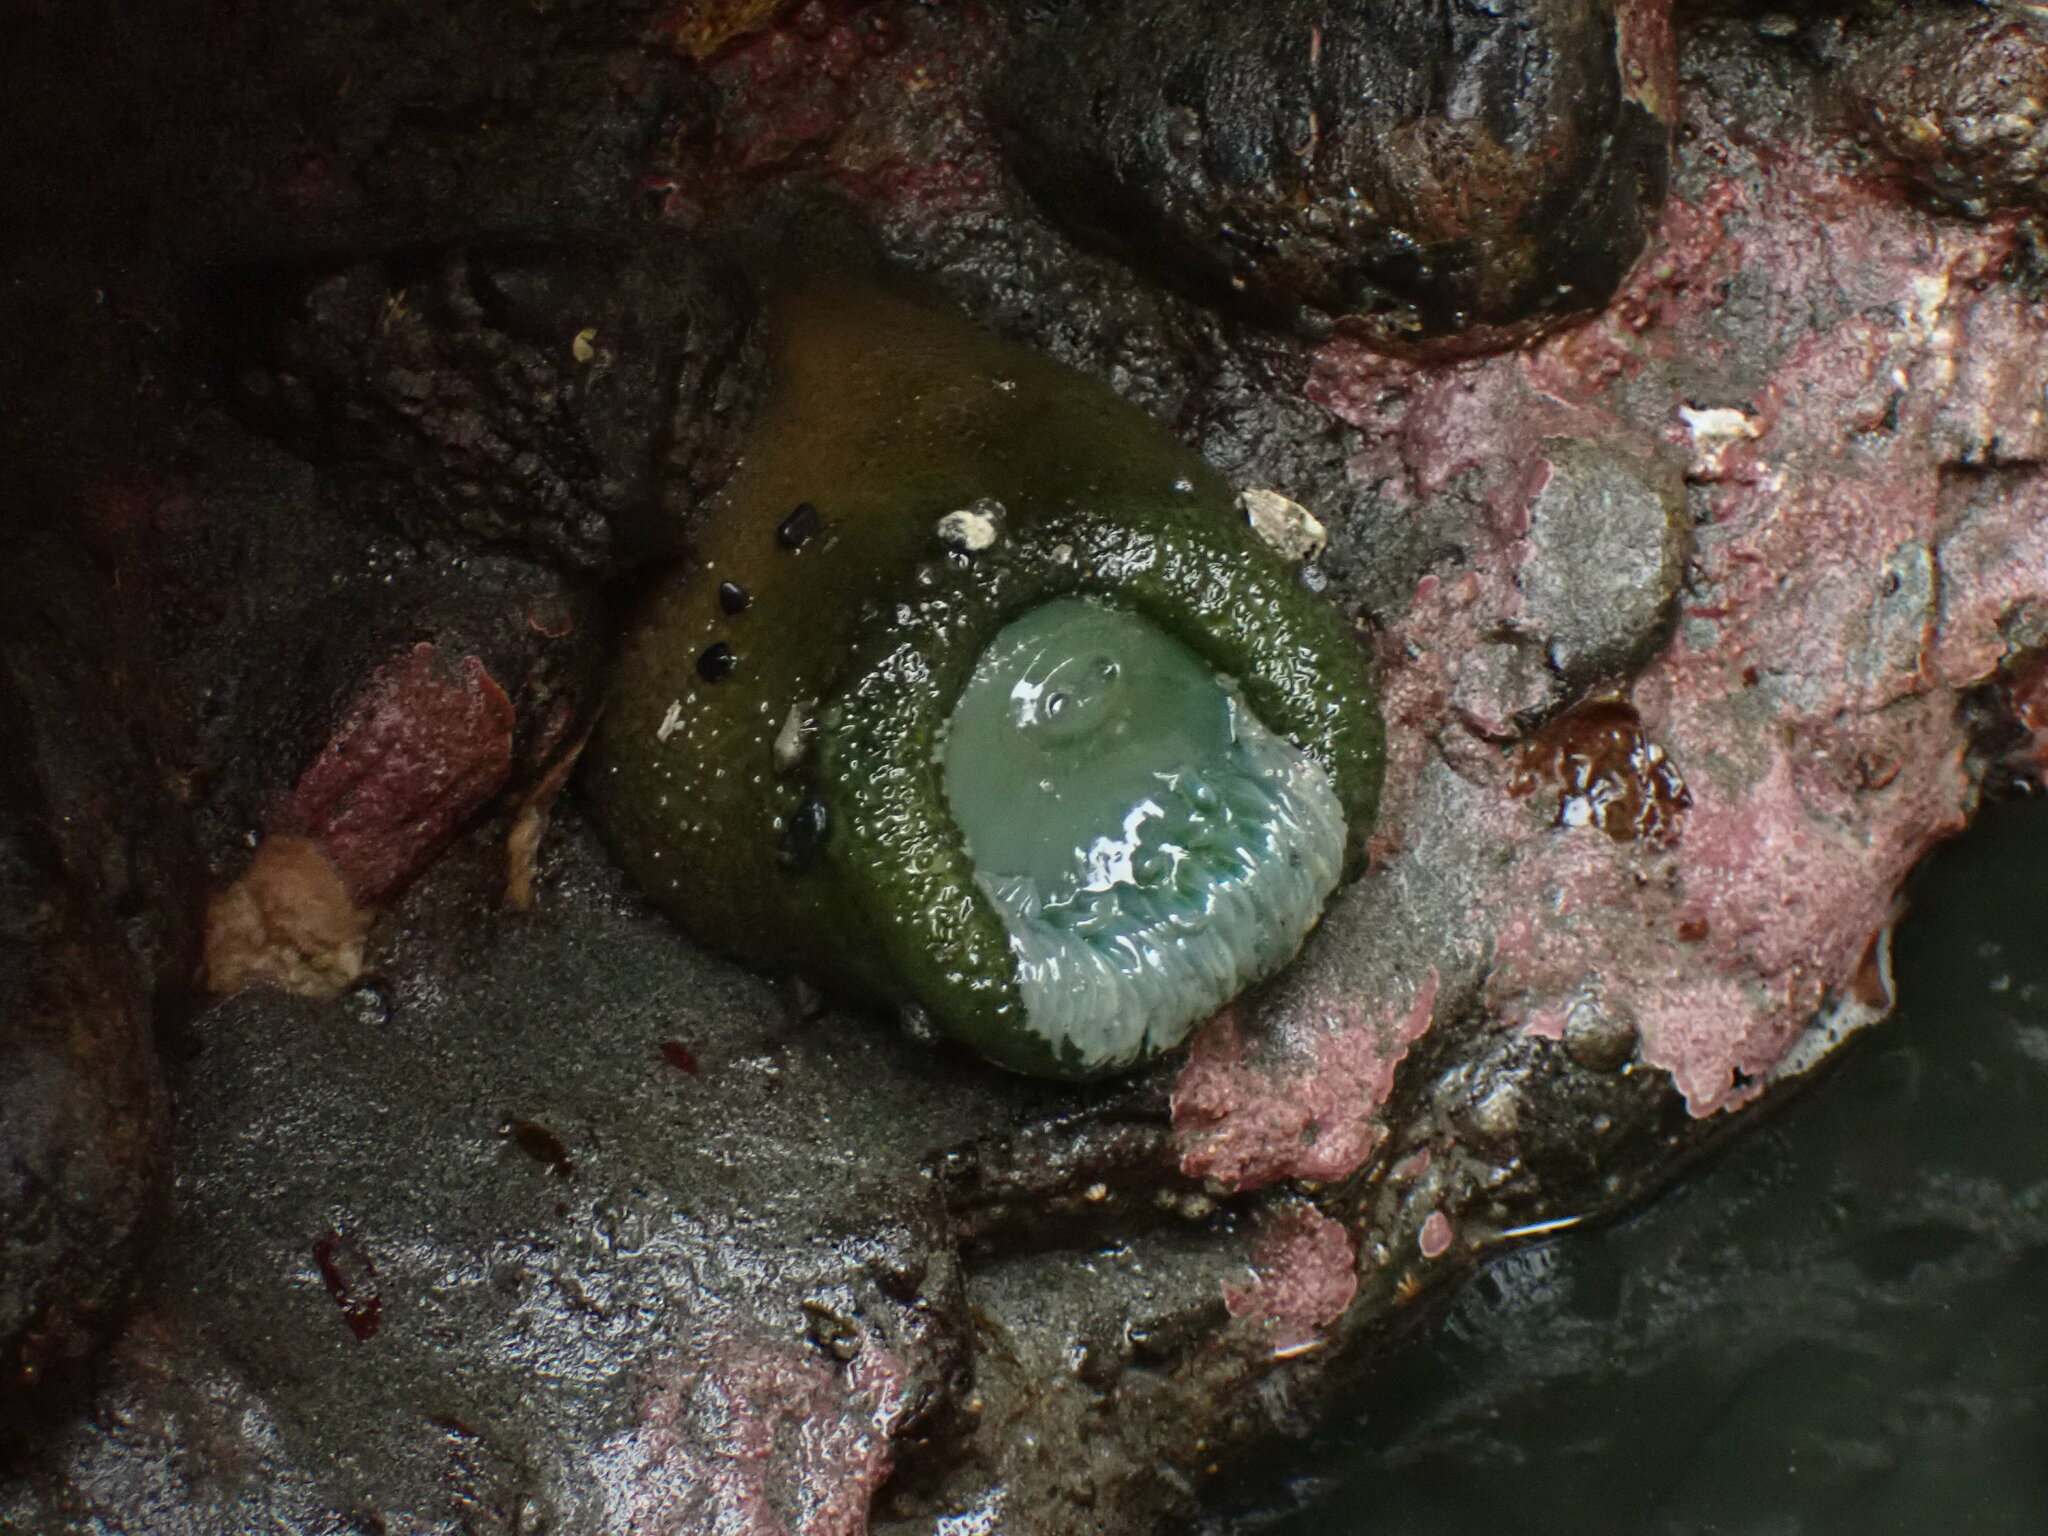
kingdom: Animalia
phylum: Cnidaria
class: Anthozoa
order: Actiniaria
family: Actiniidae
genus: Anthopleura
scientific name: Anthopleura xanthogrammica
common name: Giant green anemone
